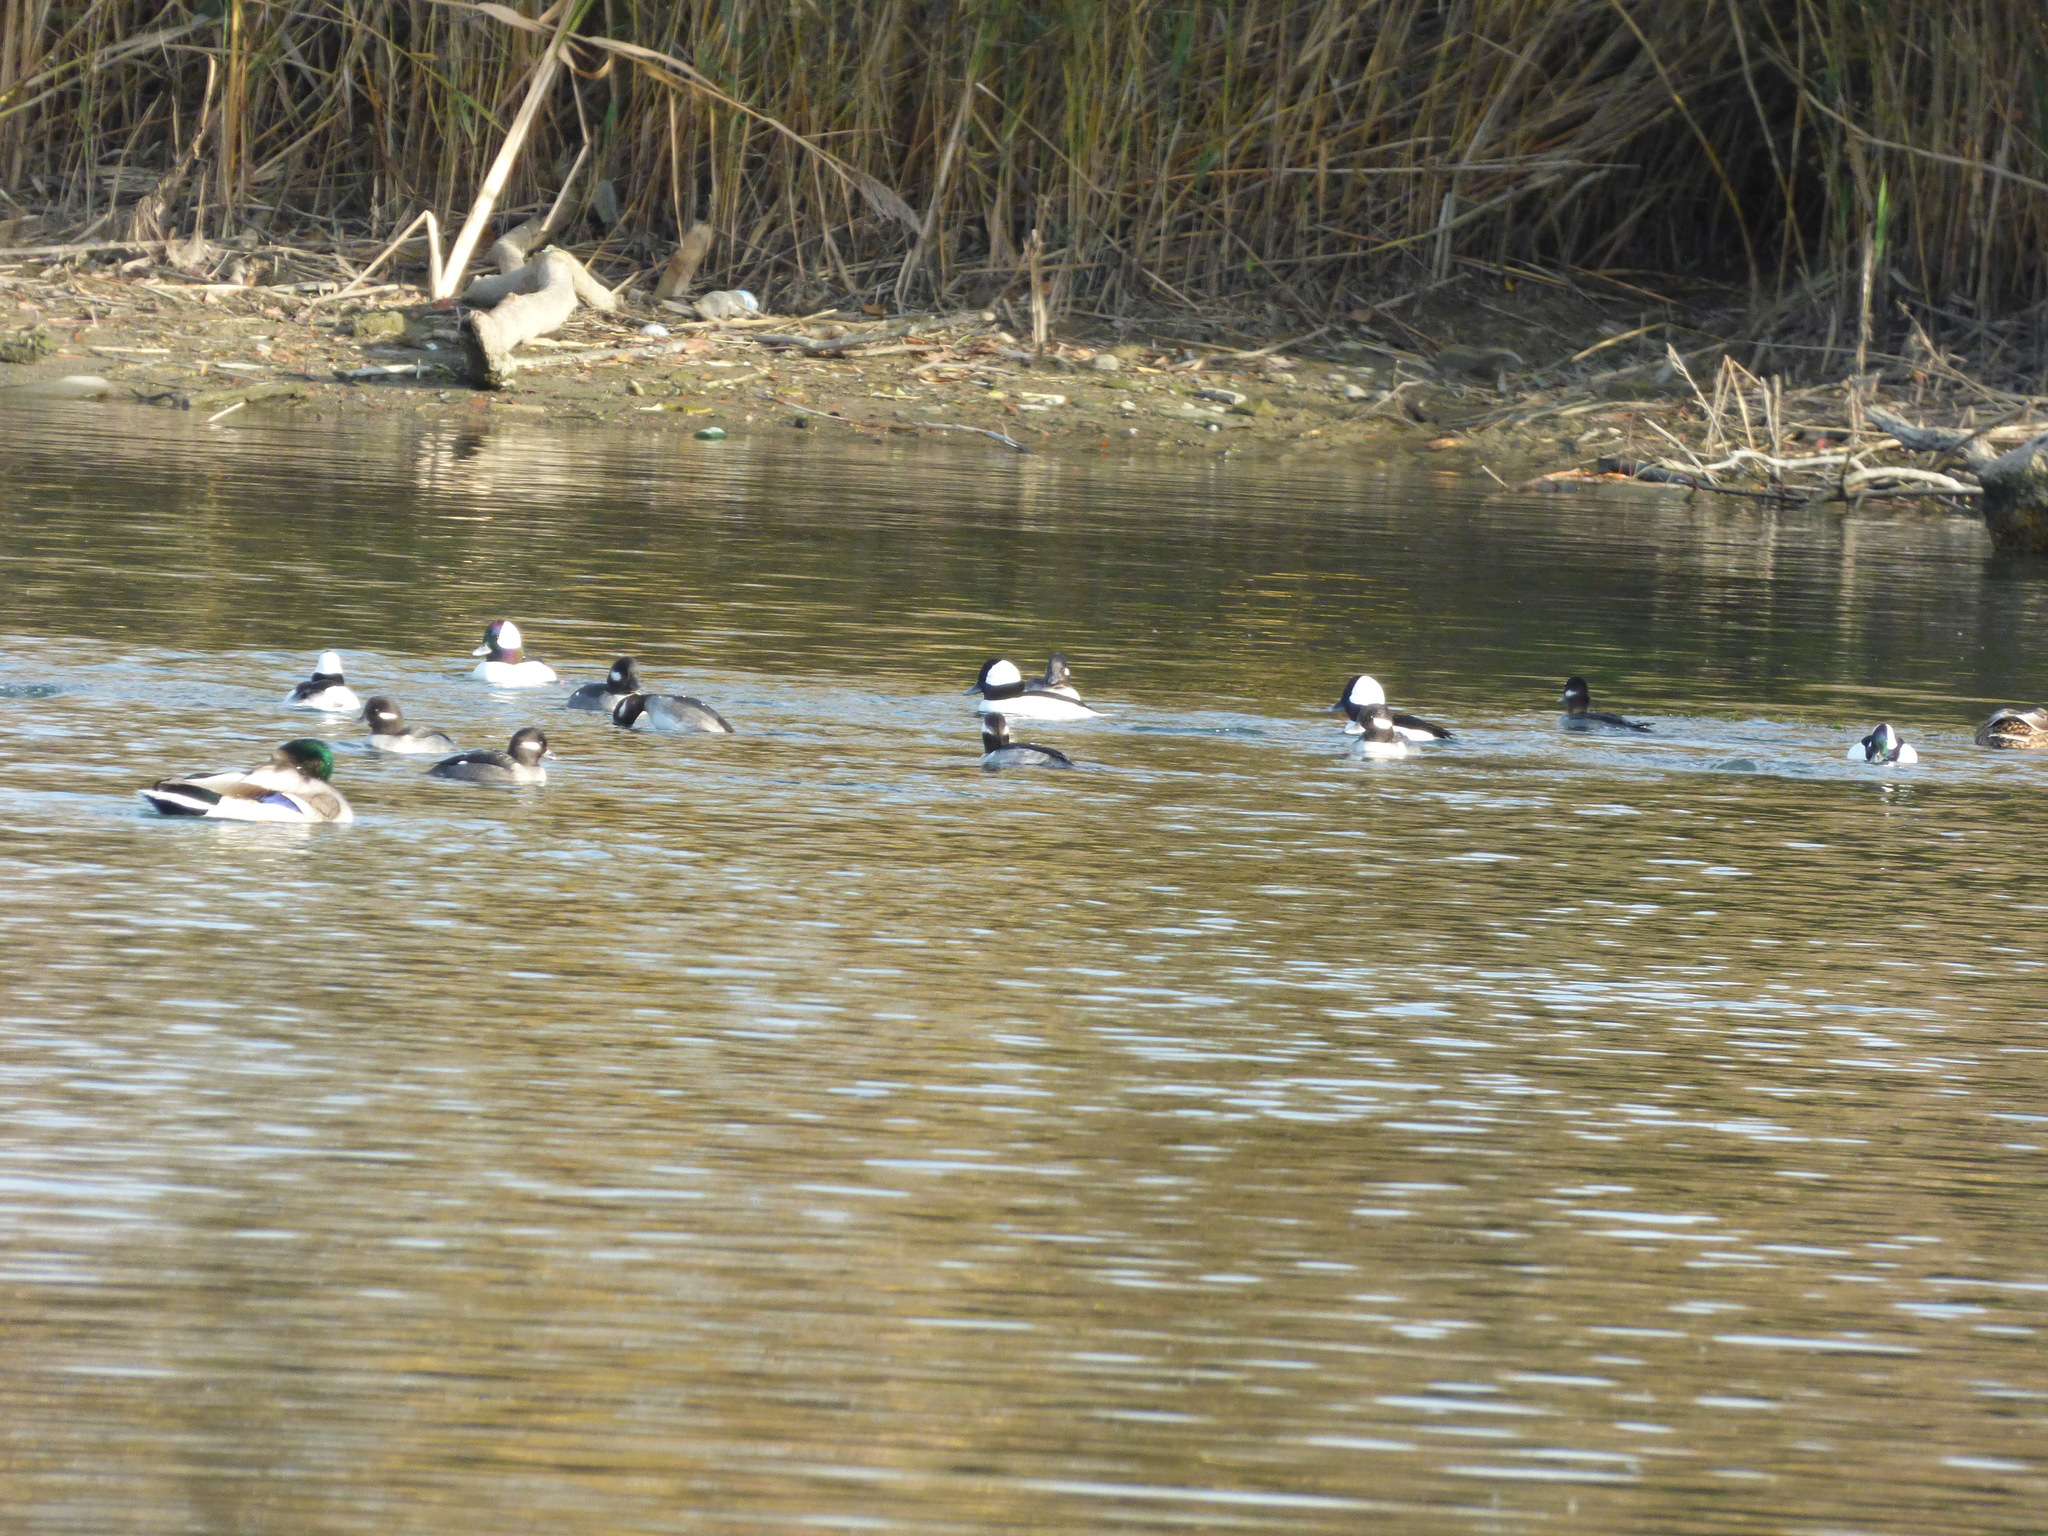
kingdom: Animalia
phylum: Chordata
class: Aves
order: Anseriformes
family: Anatidae
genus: Bucephala
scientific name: Bucephala albeola
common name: Bufflehead
